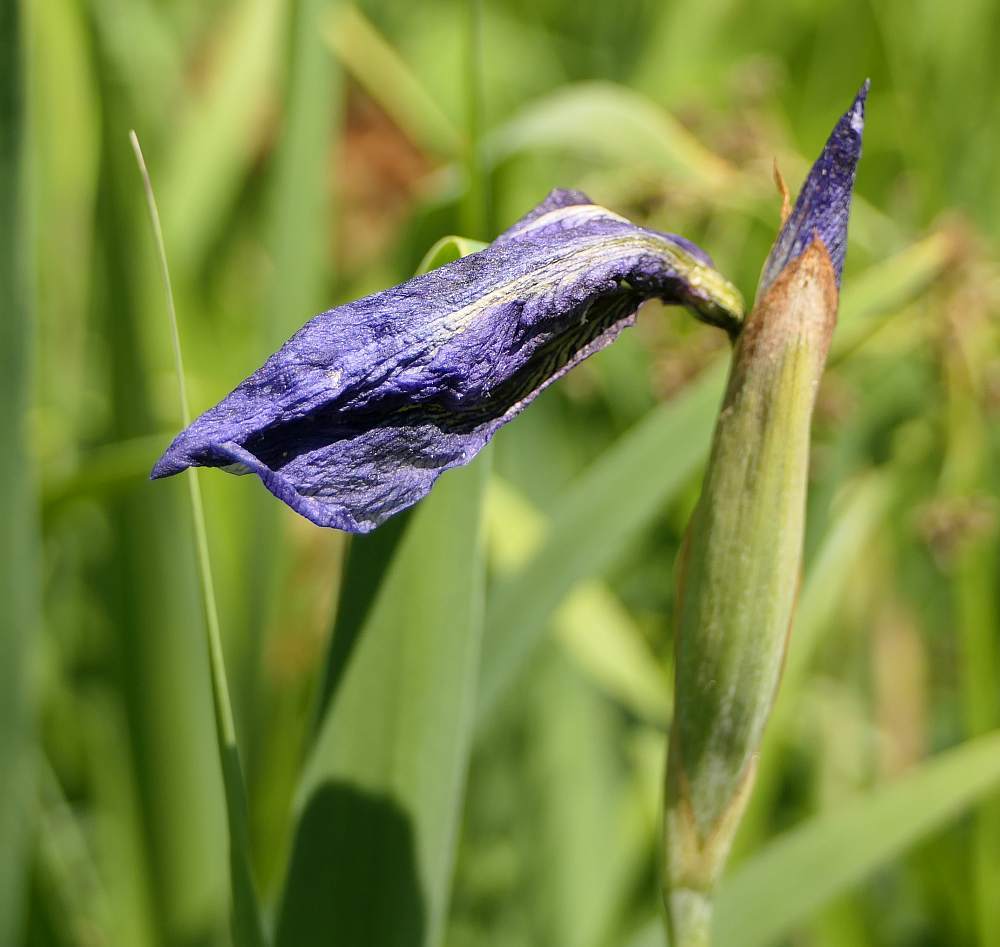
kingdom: Plantae
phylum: Tracheophyta
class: Liliopsida
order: Asparagales
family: Iridaceae
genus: Iris
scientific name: Iris versicolor
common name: Purple iris
